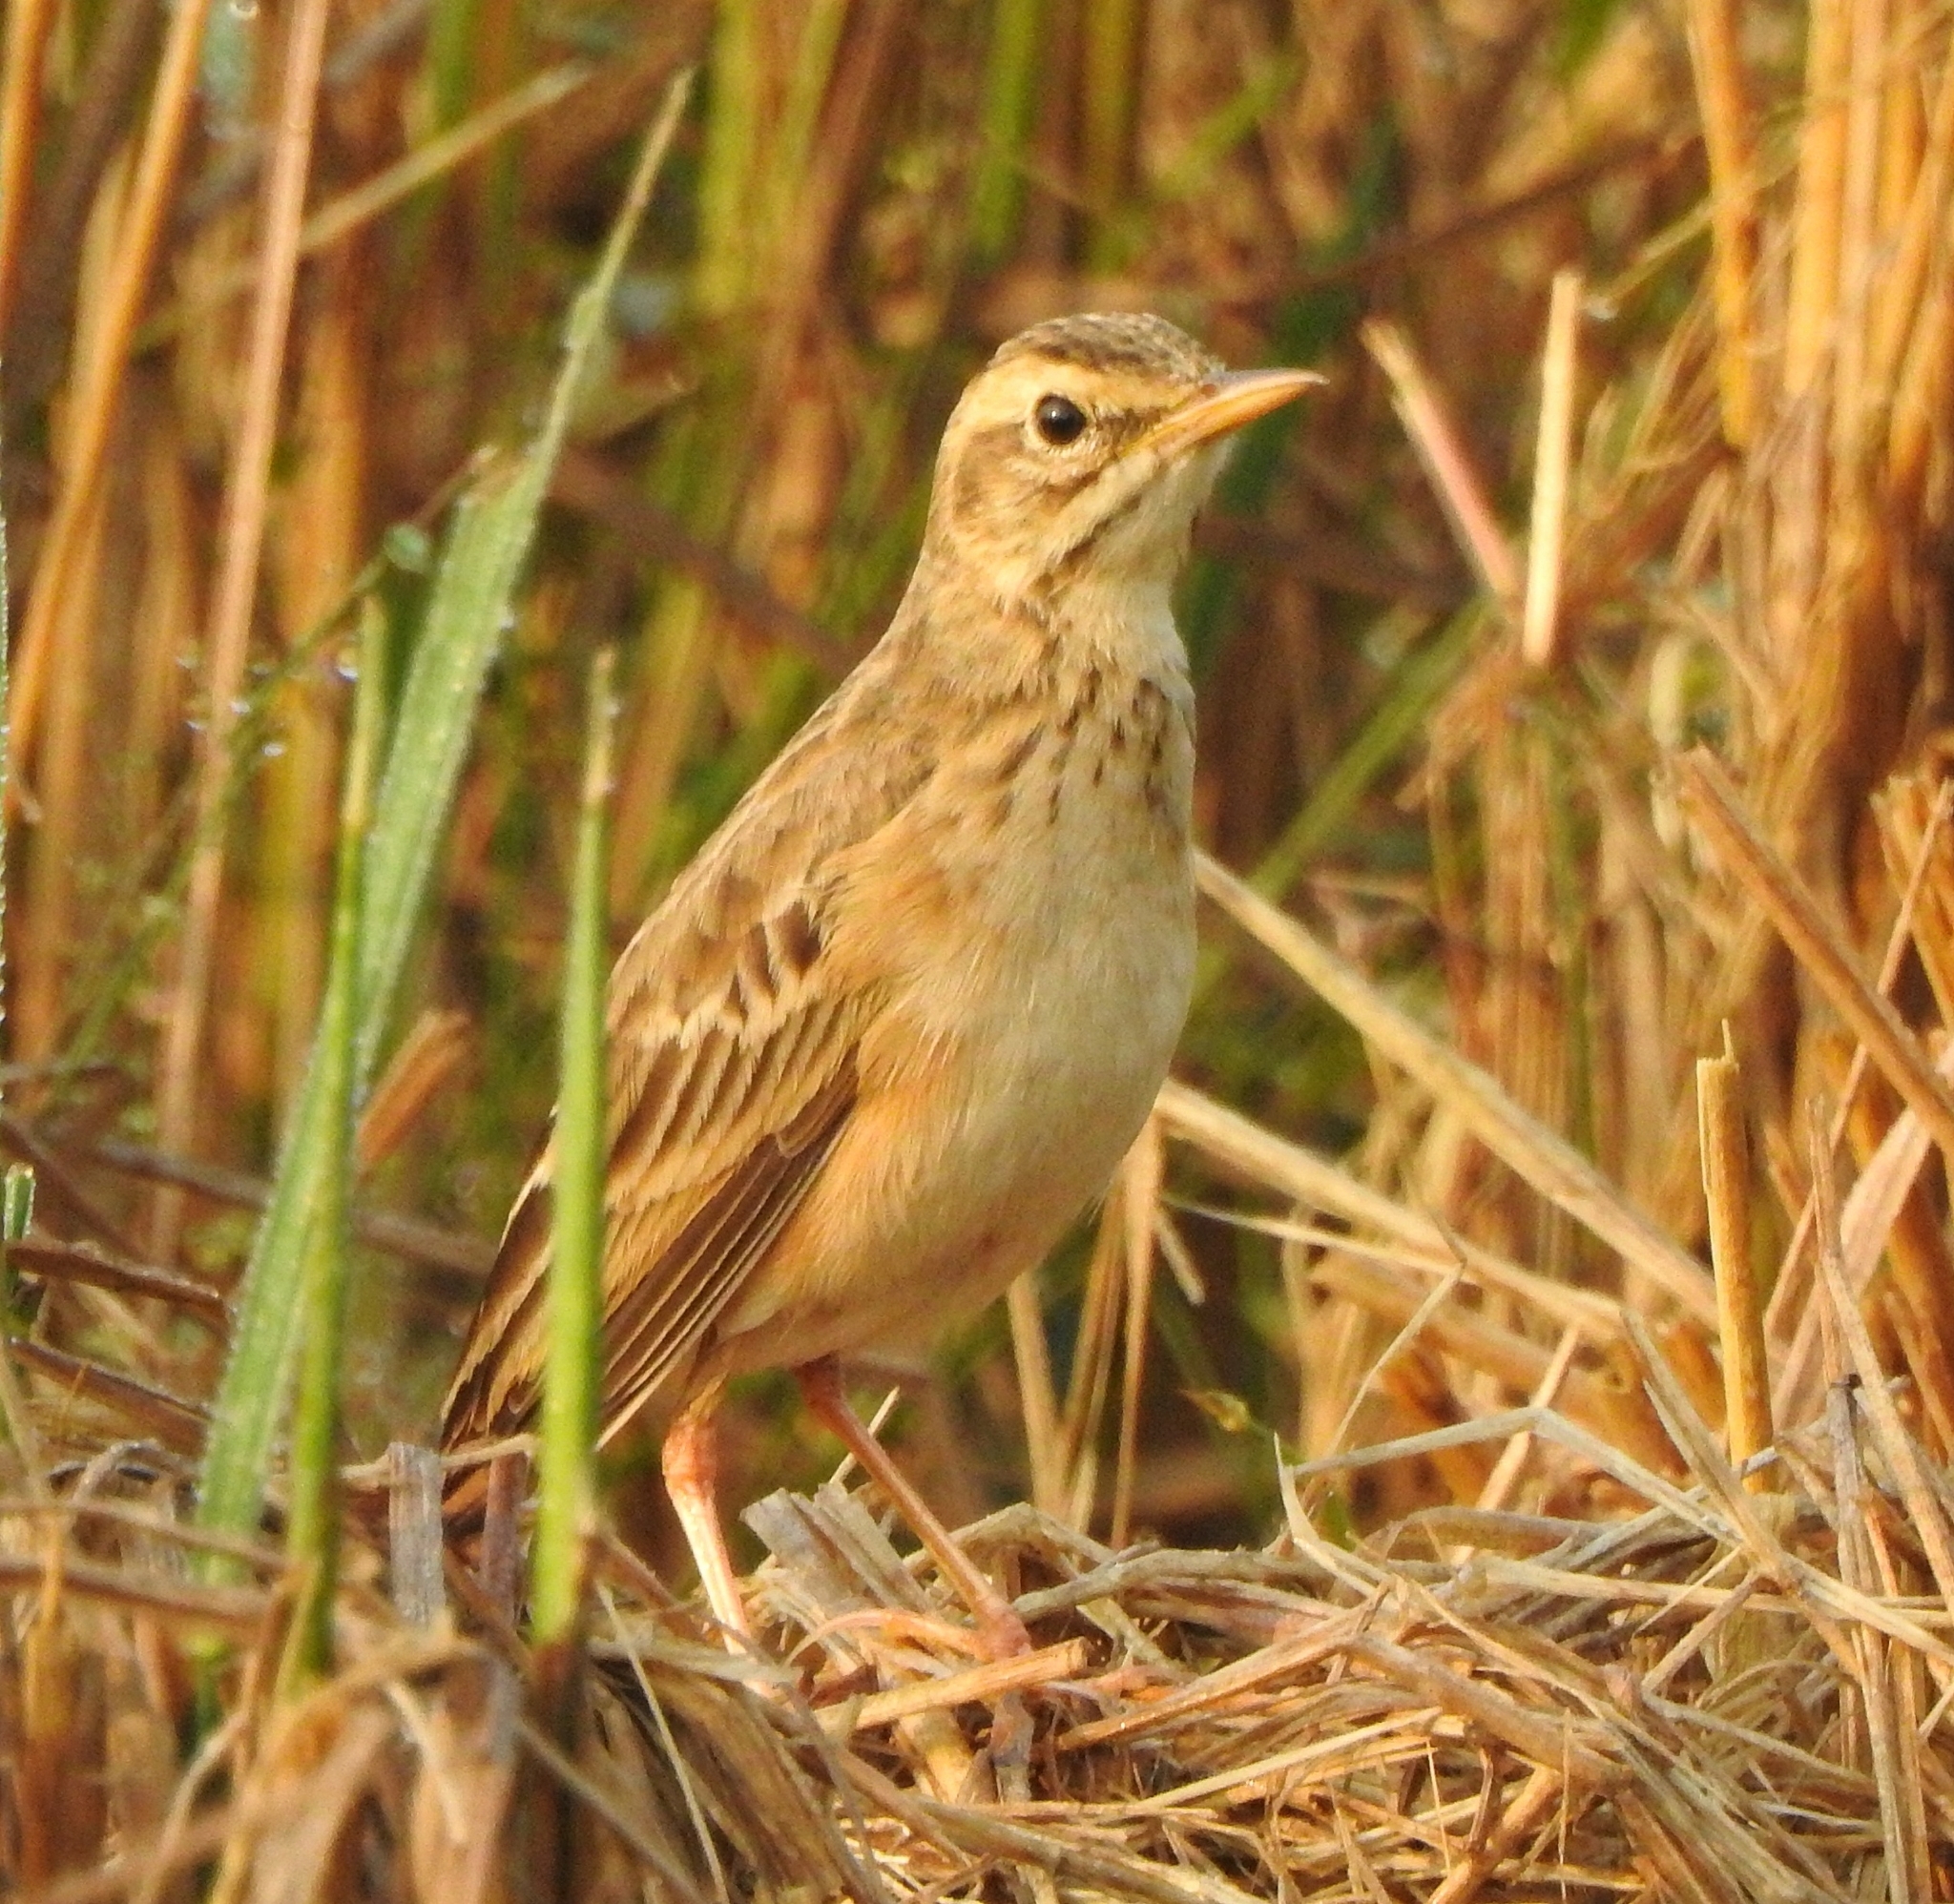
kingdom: Animalia
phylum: Chordata
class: Aves
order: Passeriformes
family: Motacillidae
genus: Anthus
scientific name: Anthus rufulus
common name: Paddyfield pipit
